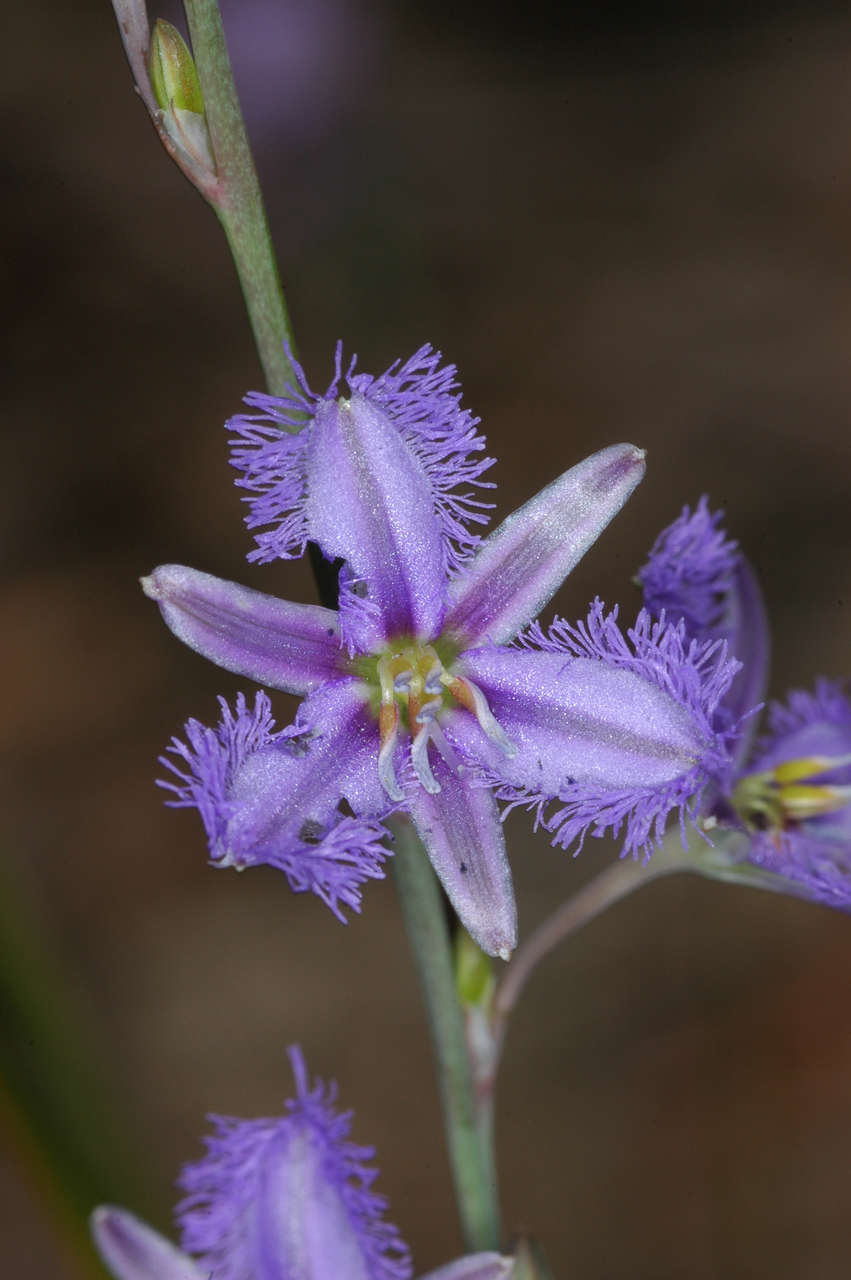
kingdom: Plantae
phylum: Tracheophyta
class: Liliopsida
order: Asparagales
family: Asparagaceae
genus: Thysanotus
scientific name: Thysanotus baueri
